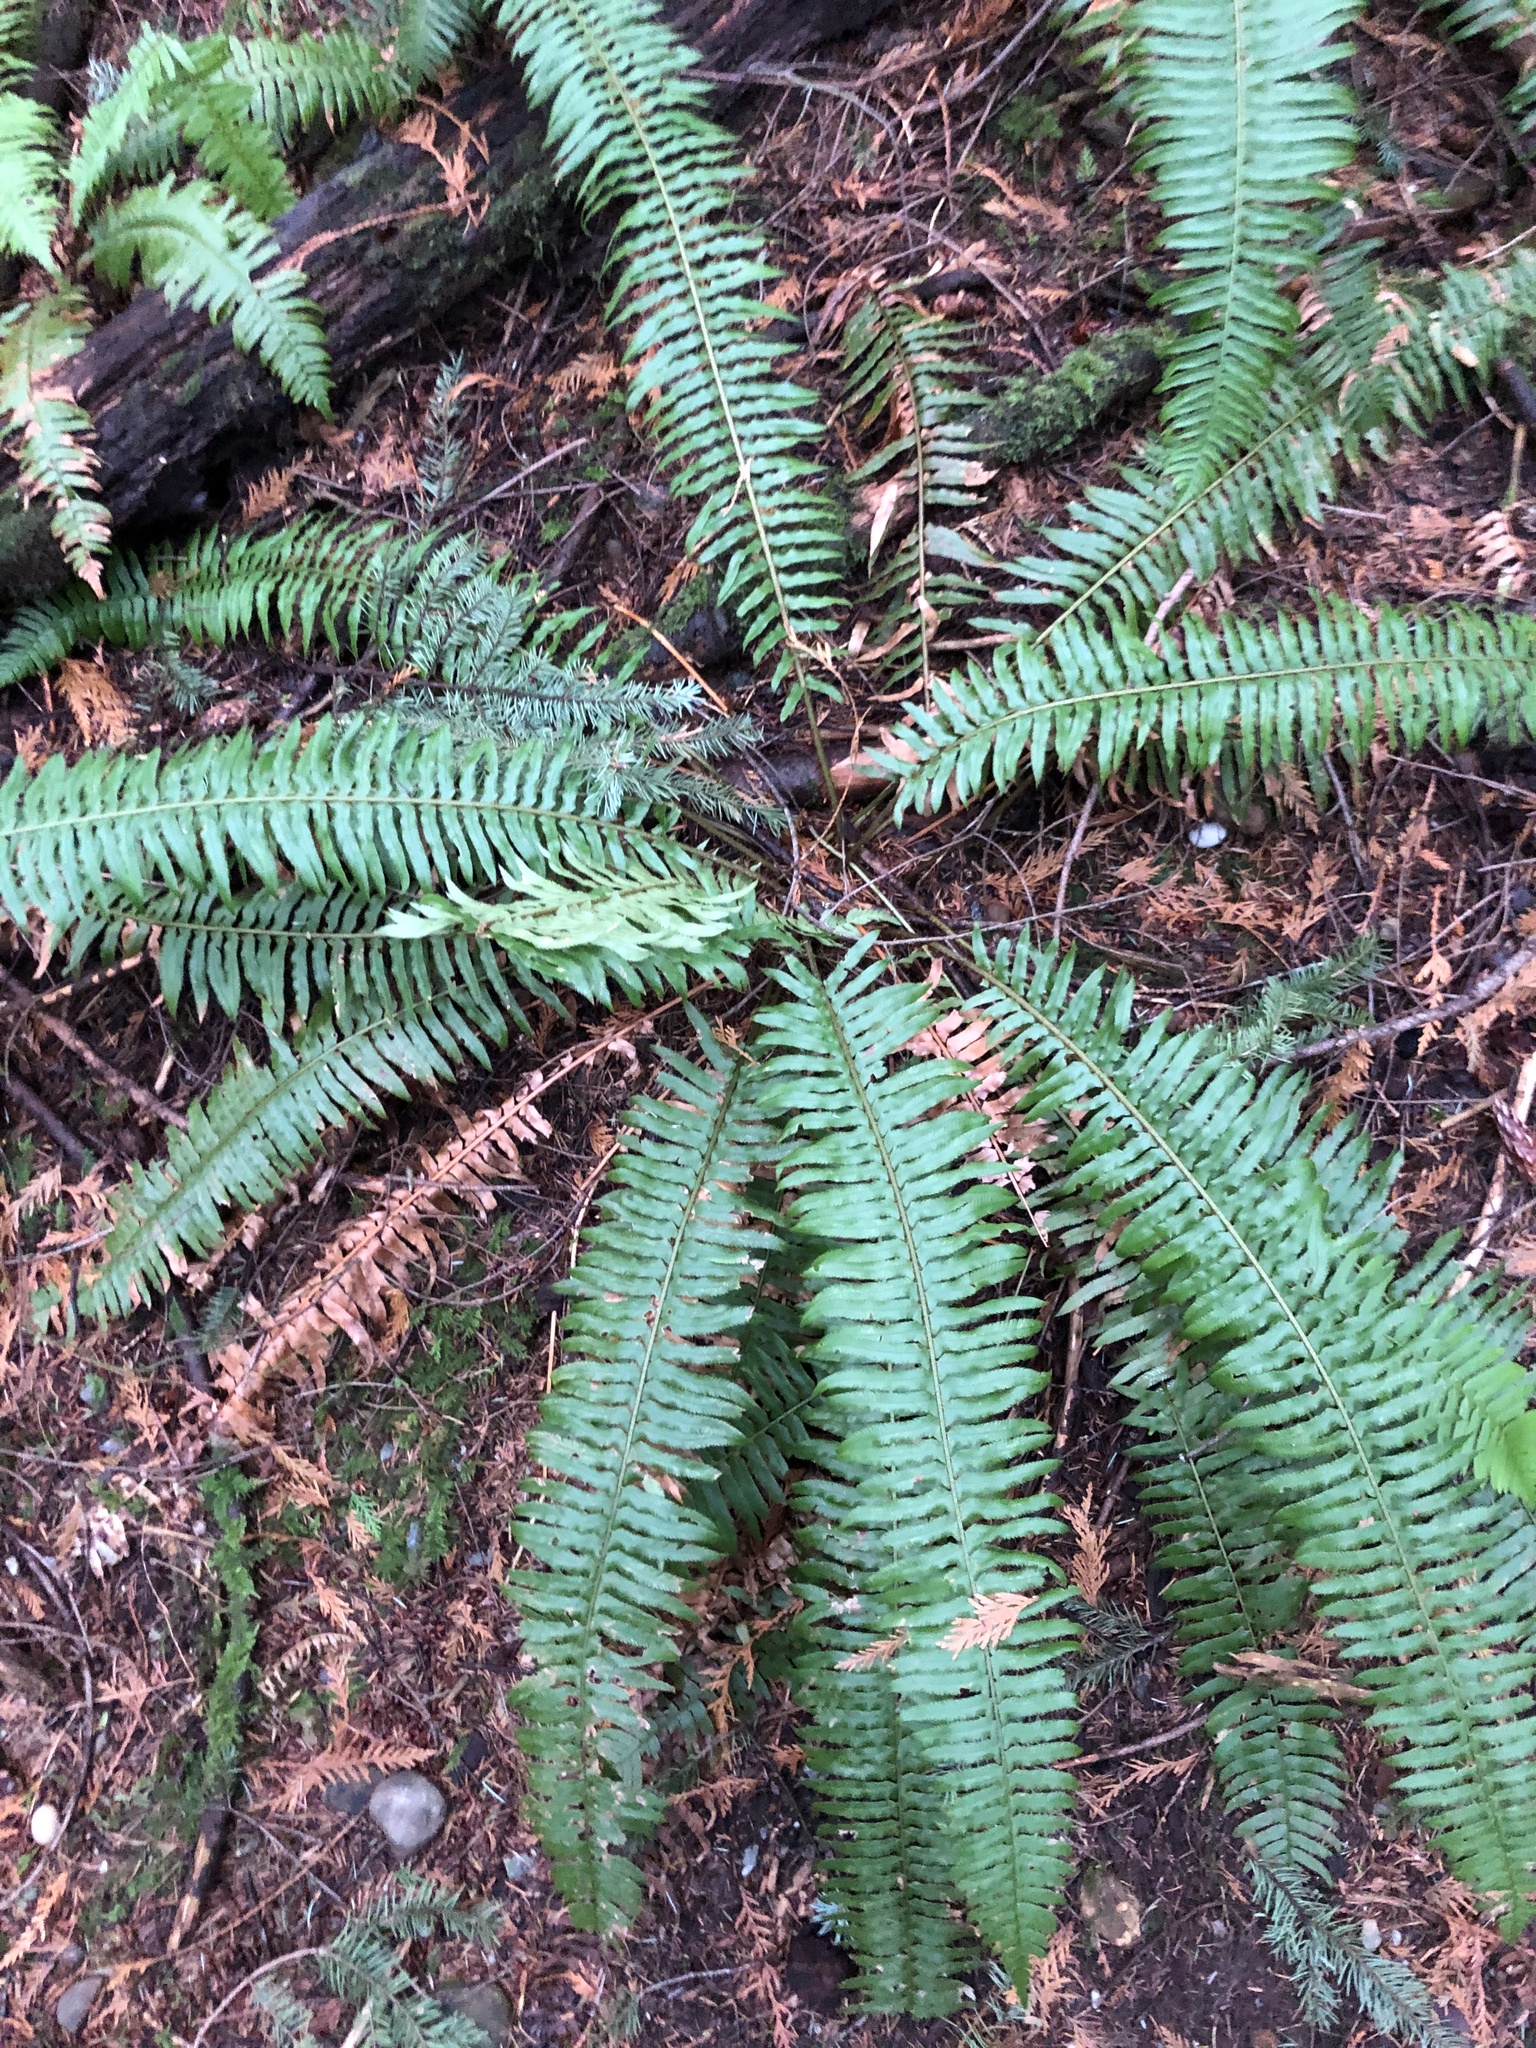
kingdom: Plantae
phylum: Tracheophyta
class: Polypodiopsida
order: Polypodiales
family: Dryopteridaceae
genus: Polystichum
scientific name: Polystichum munitum
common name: Western sword-fern
